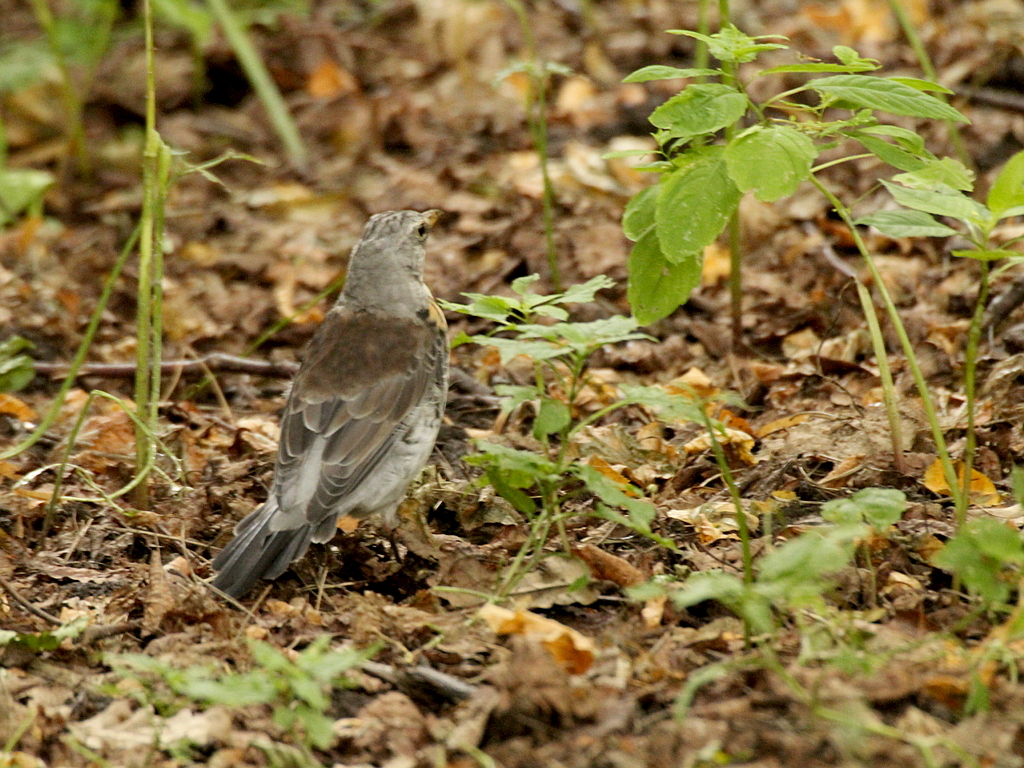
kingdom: Animalia
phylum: Chordata
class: Aves
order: Passeriformes
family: Turdidae
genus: Turdus
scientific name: Turdus pilaris
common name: Fieldfare
